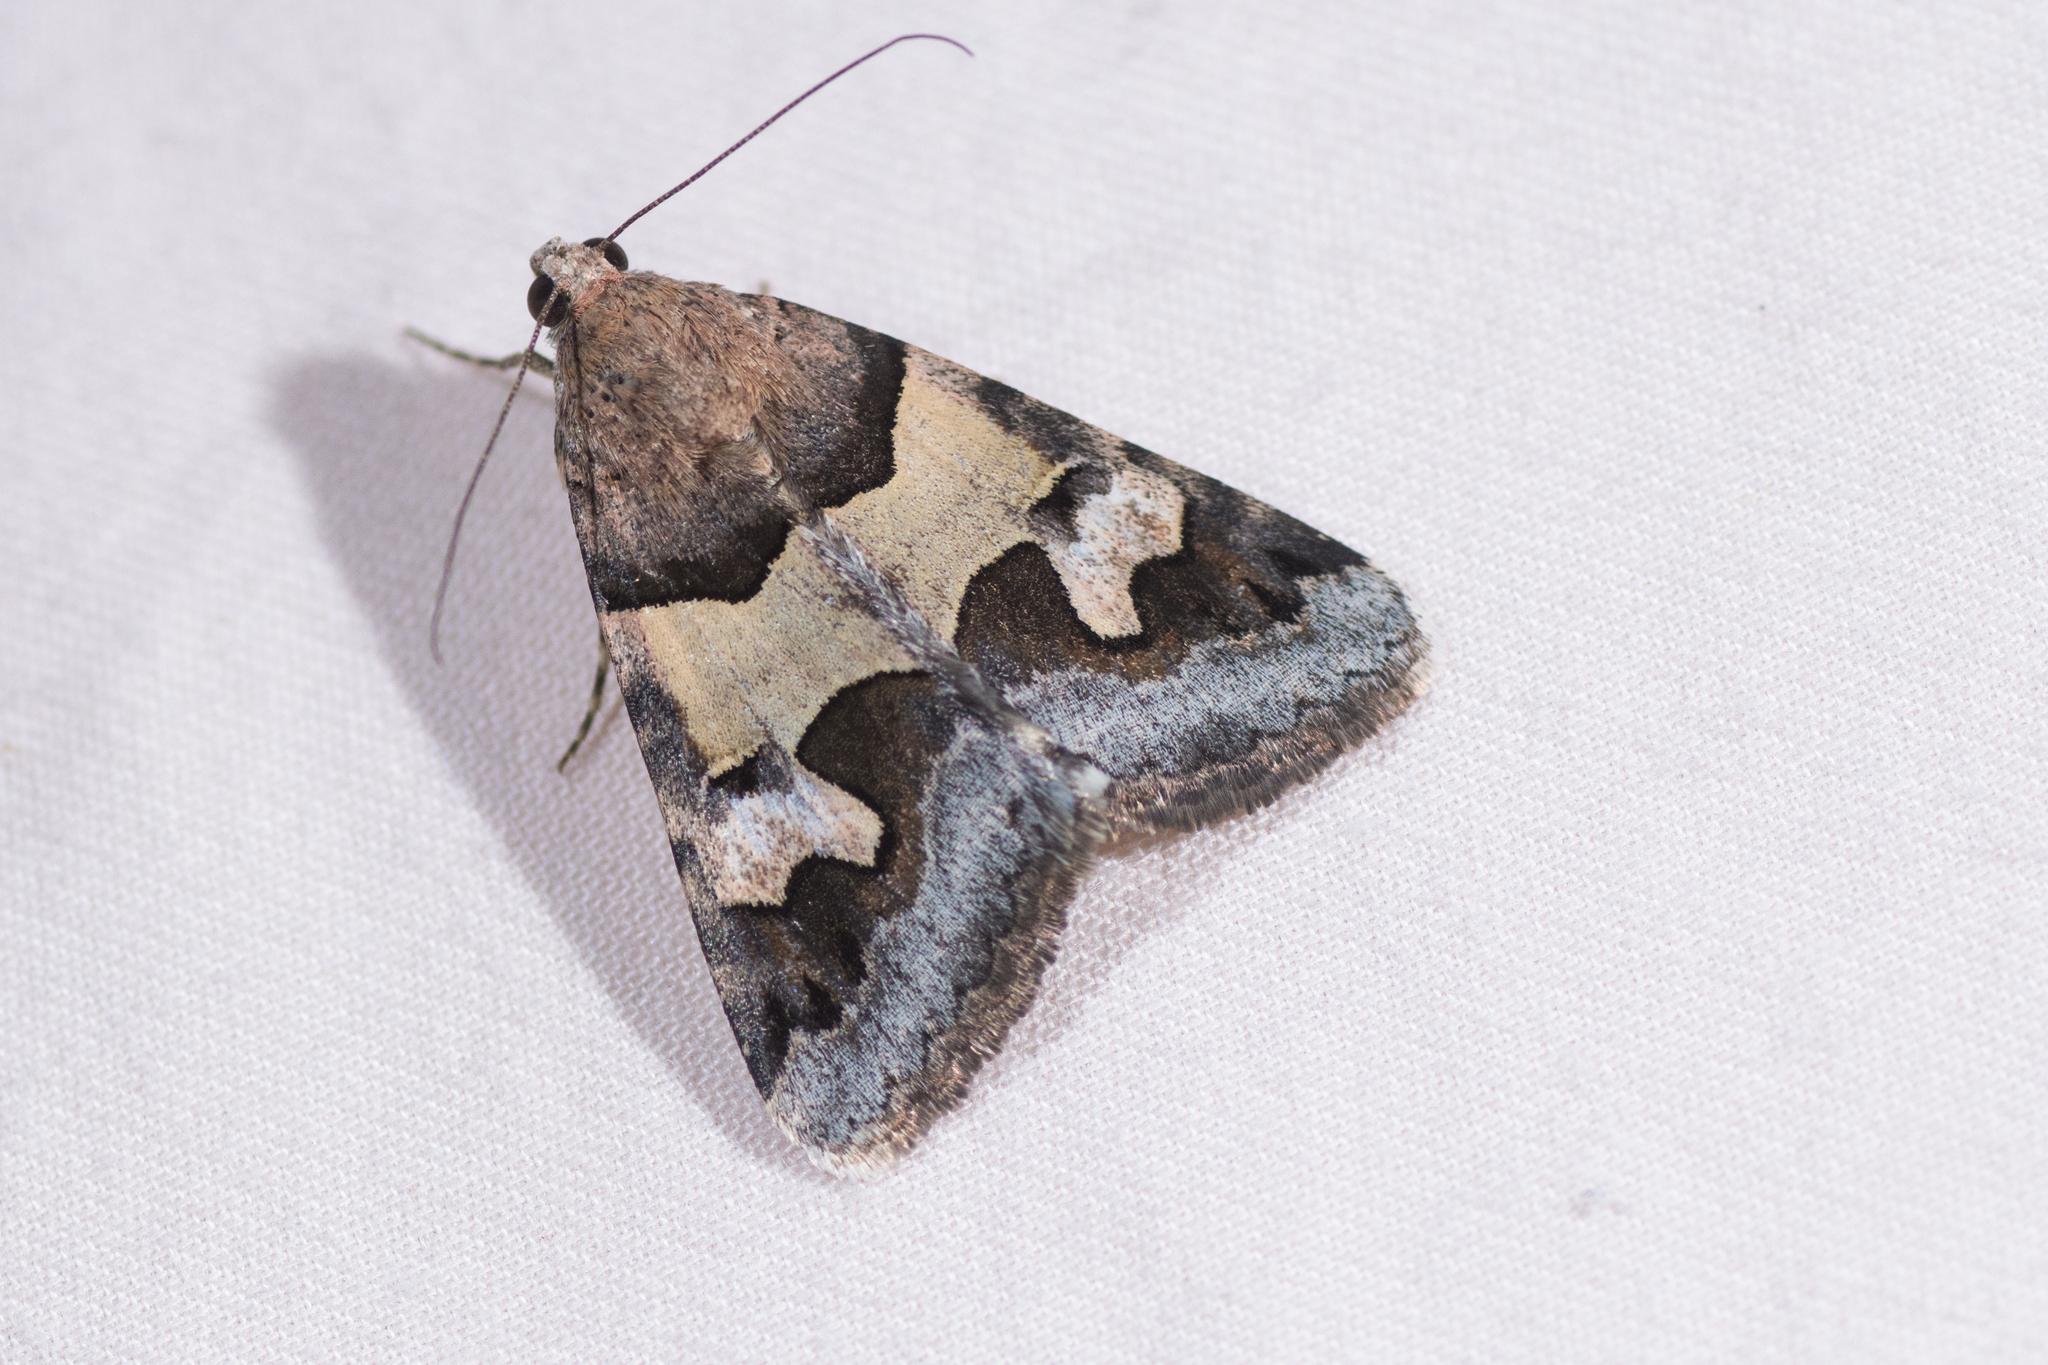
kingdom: Animalia
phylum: Arthropoda
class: Insecta
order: Lepidoptera
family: Erebidae
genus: Drasteria
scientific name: Drasteria pallescens
